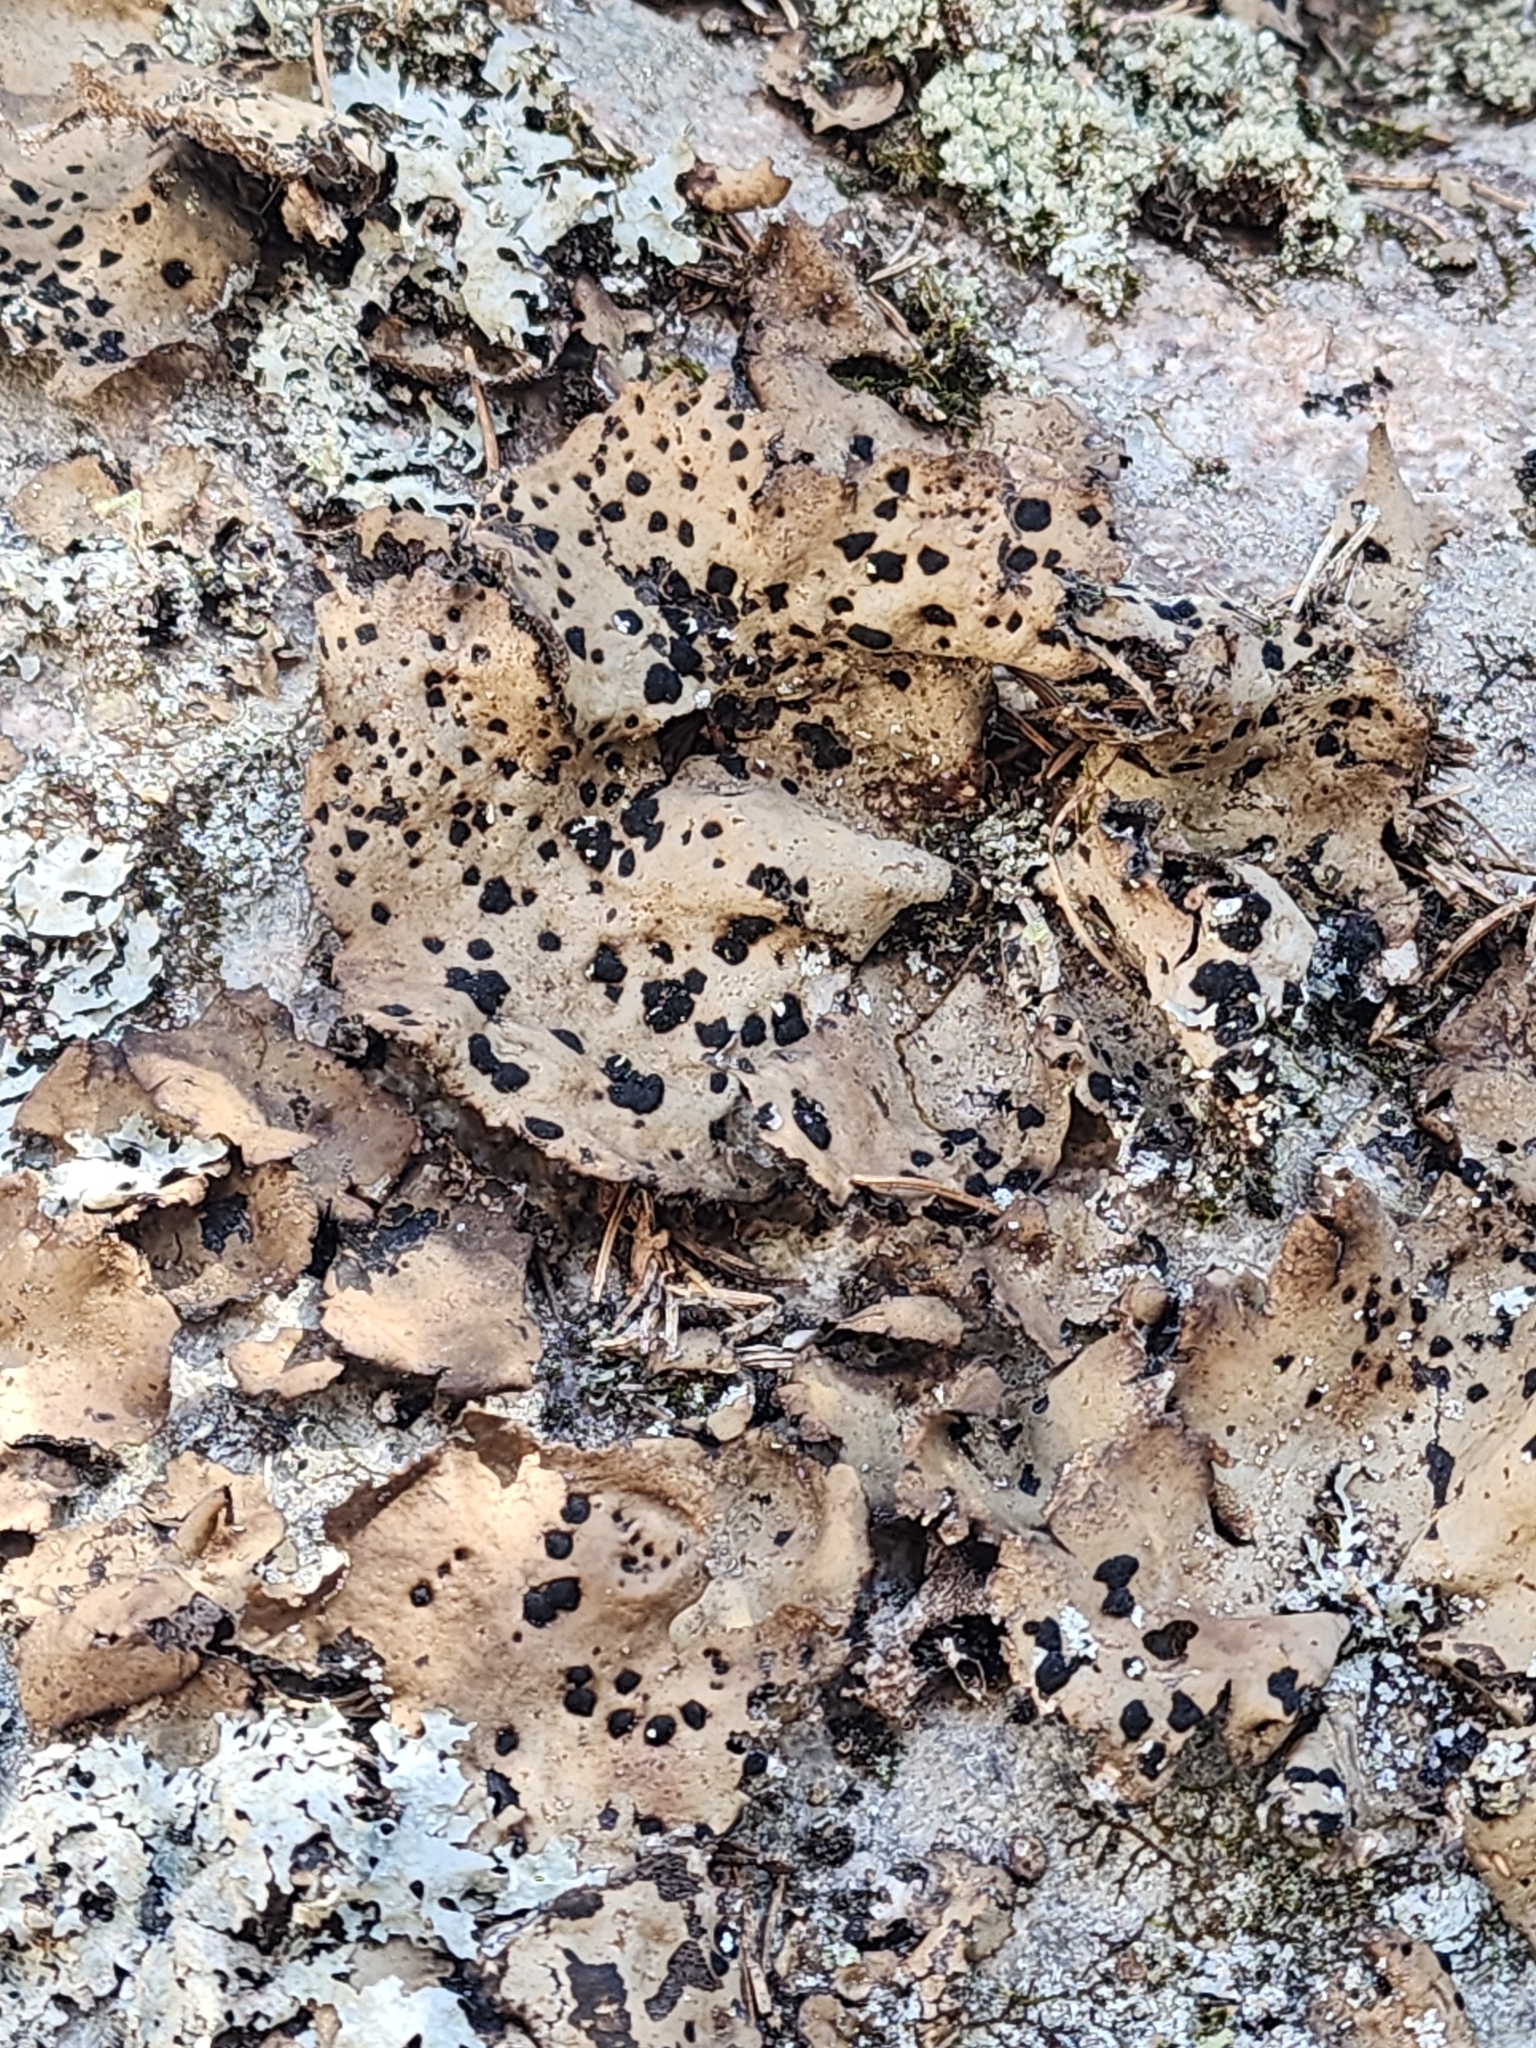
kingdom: Fungi
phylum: Ascomycota
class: Lecanoromycetes
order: Umbilicariales
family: Umbilicariaceae
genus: Umbilicaria
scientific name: Umbilicaria muhlenbergii
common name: Lesser rocktripe
